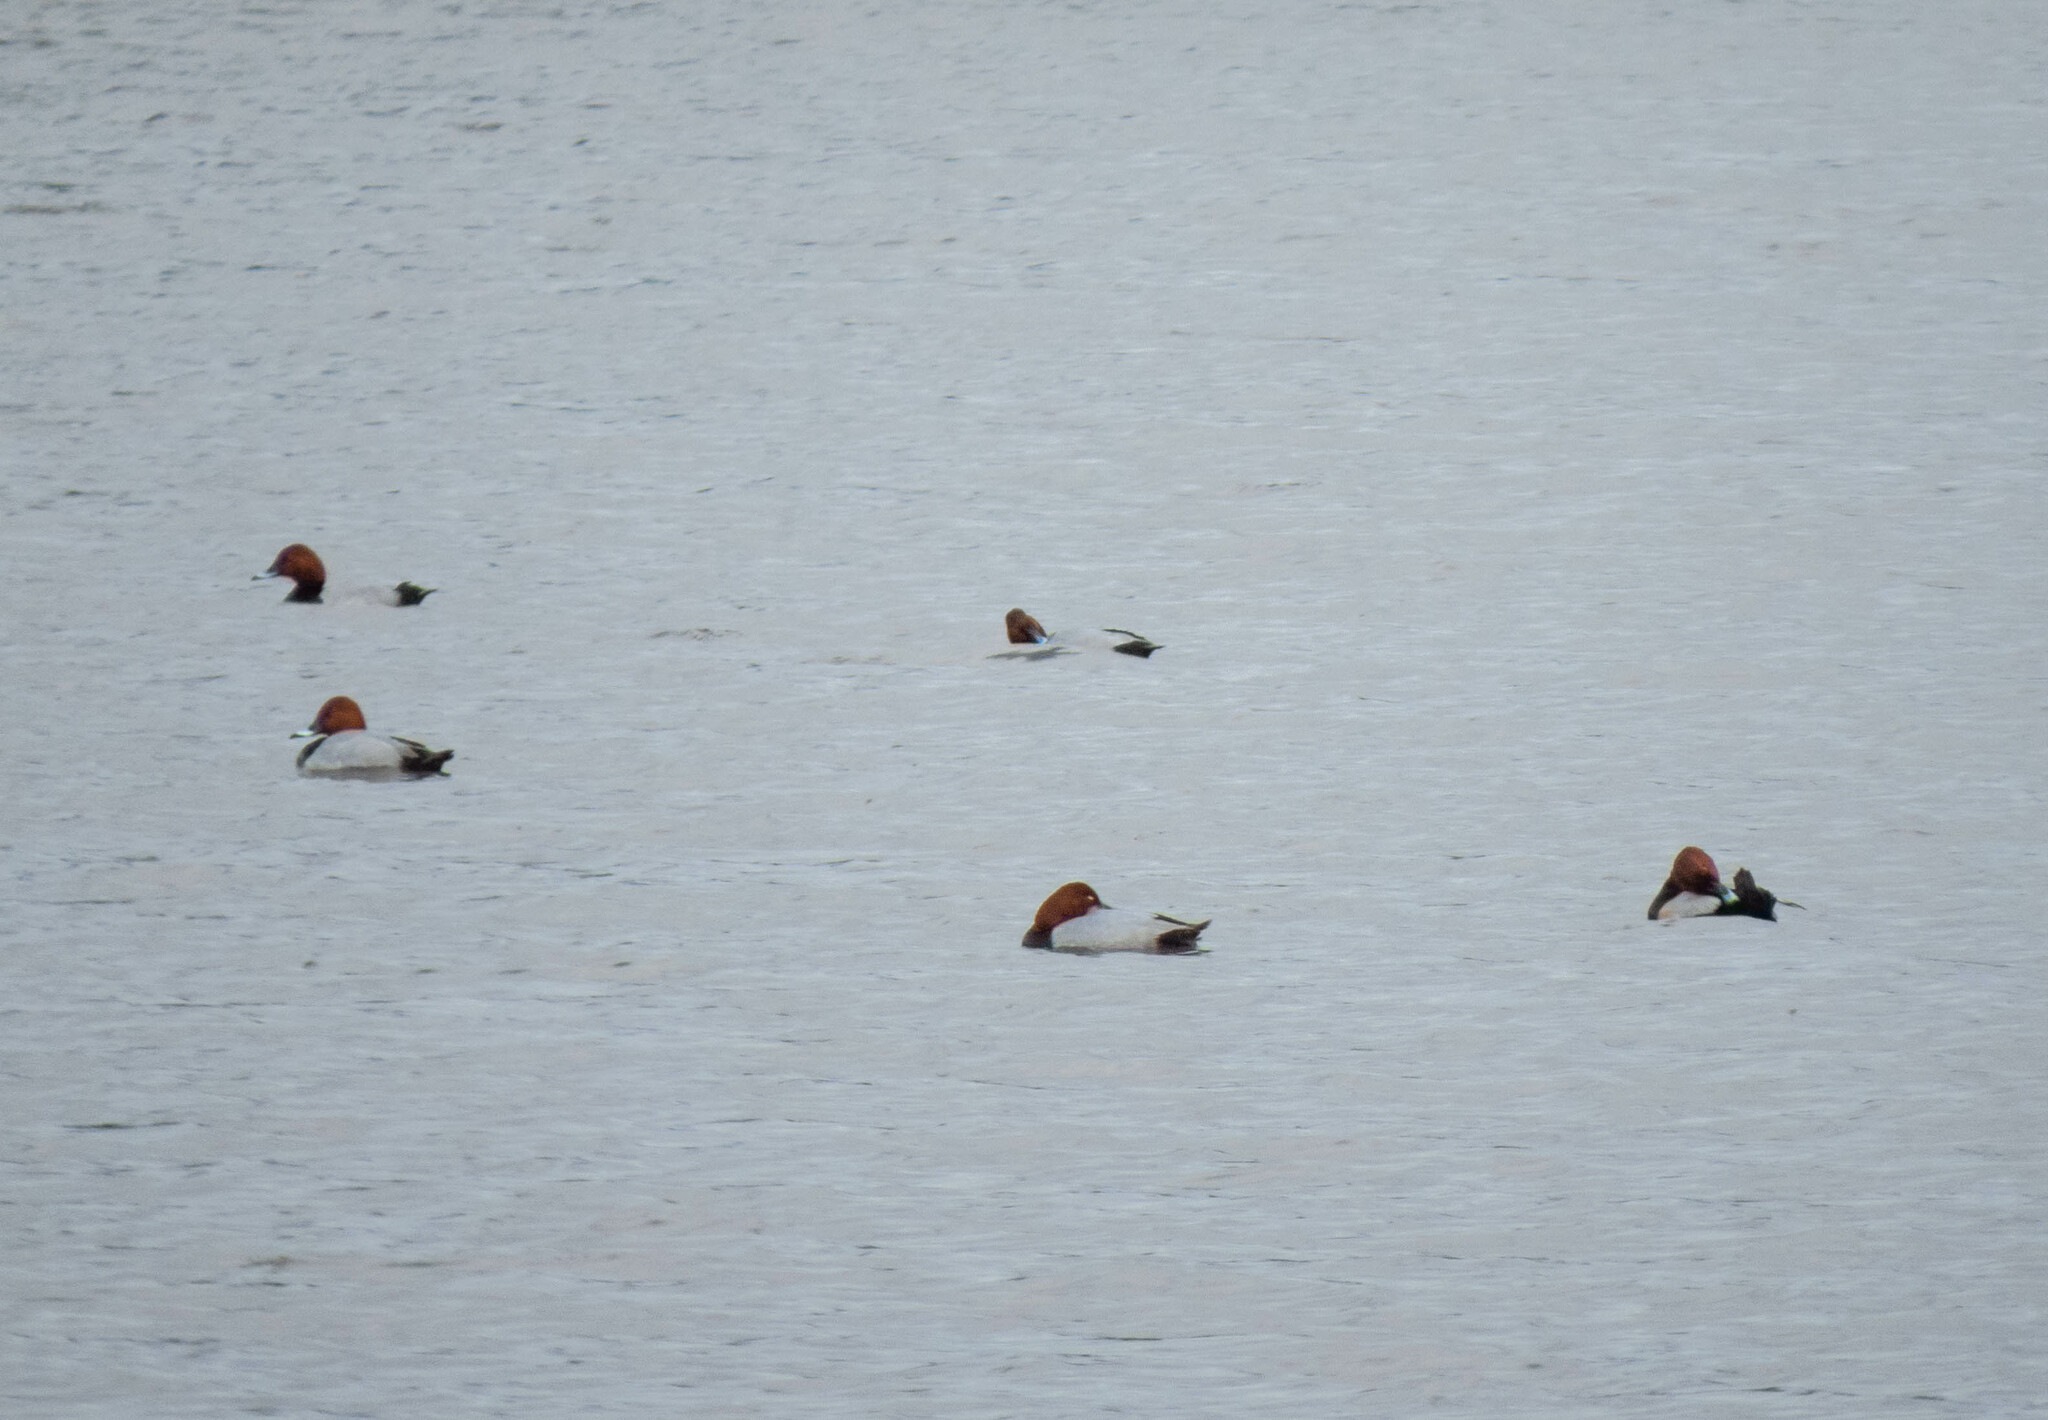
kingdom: Animalia
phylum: Chordata
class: Aves
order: Anseriformes
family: Anatidae
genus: Aythya
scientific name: Aythya ferina
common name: Common pochard
